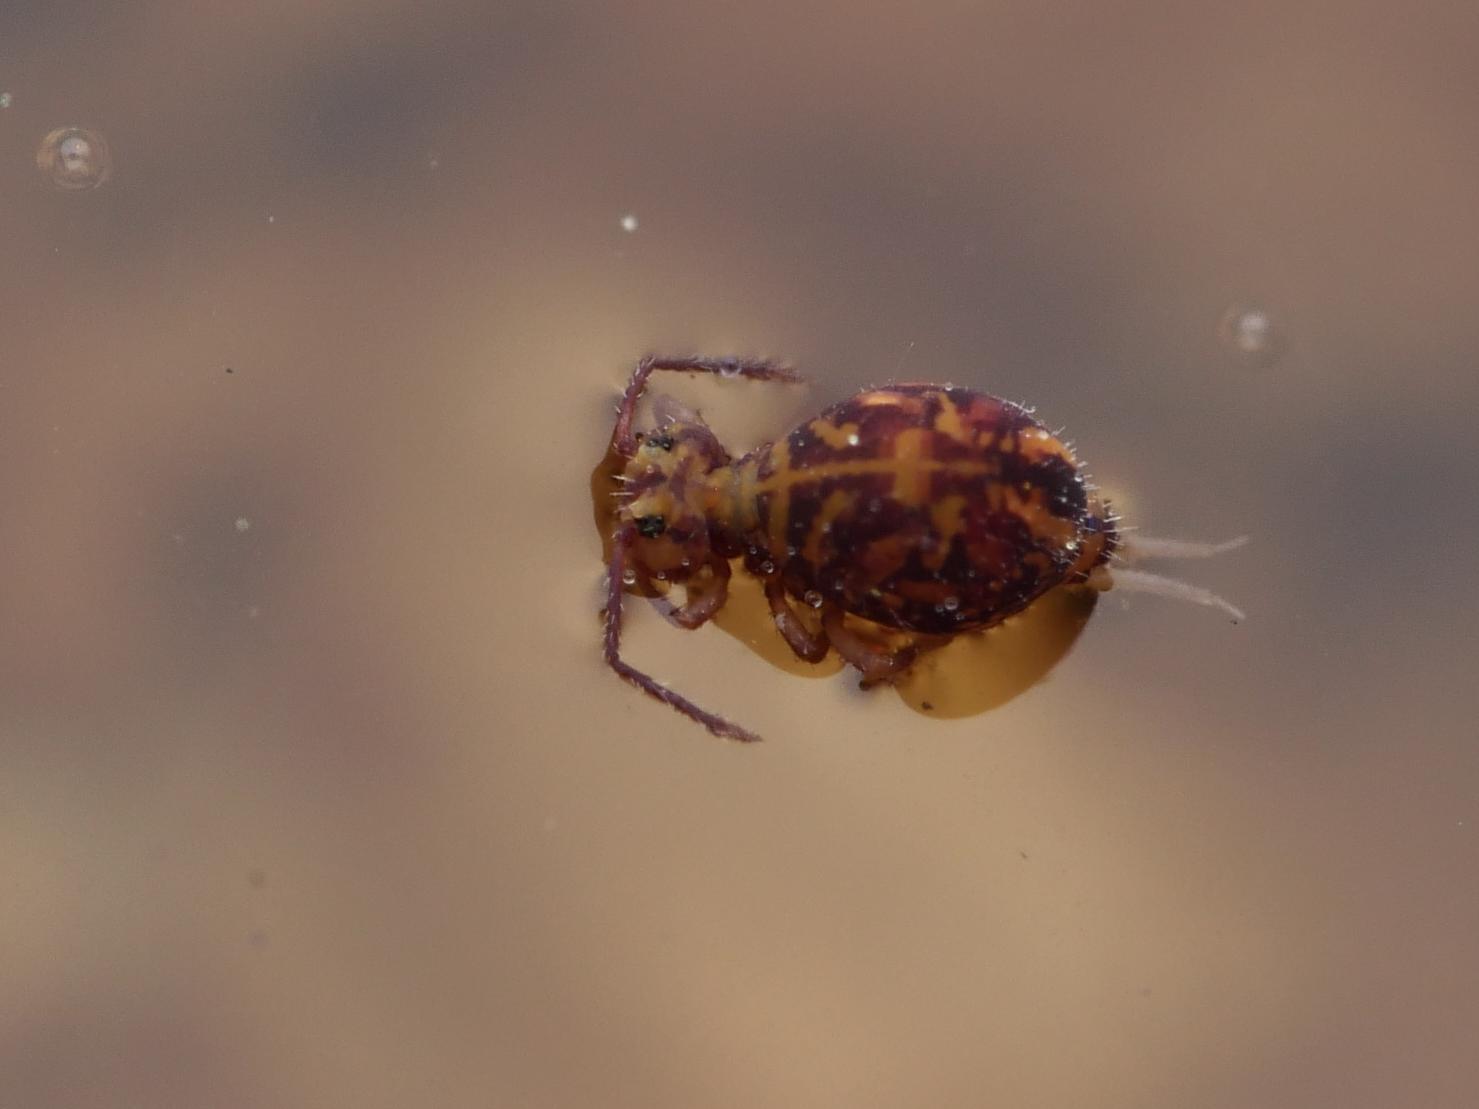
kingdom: Animalia
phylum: Arthropoda
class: Collembola
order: Symphypleona
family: Dicyrtomidae
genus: Dicyrtomina
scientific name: Dicyrtomina ornata
